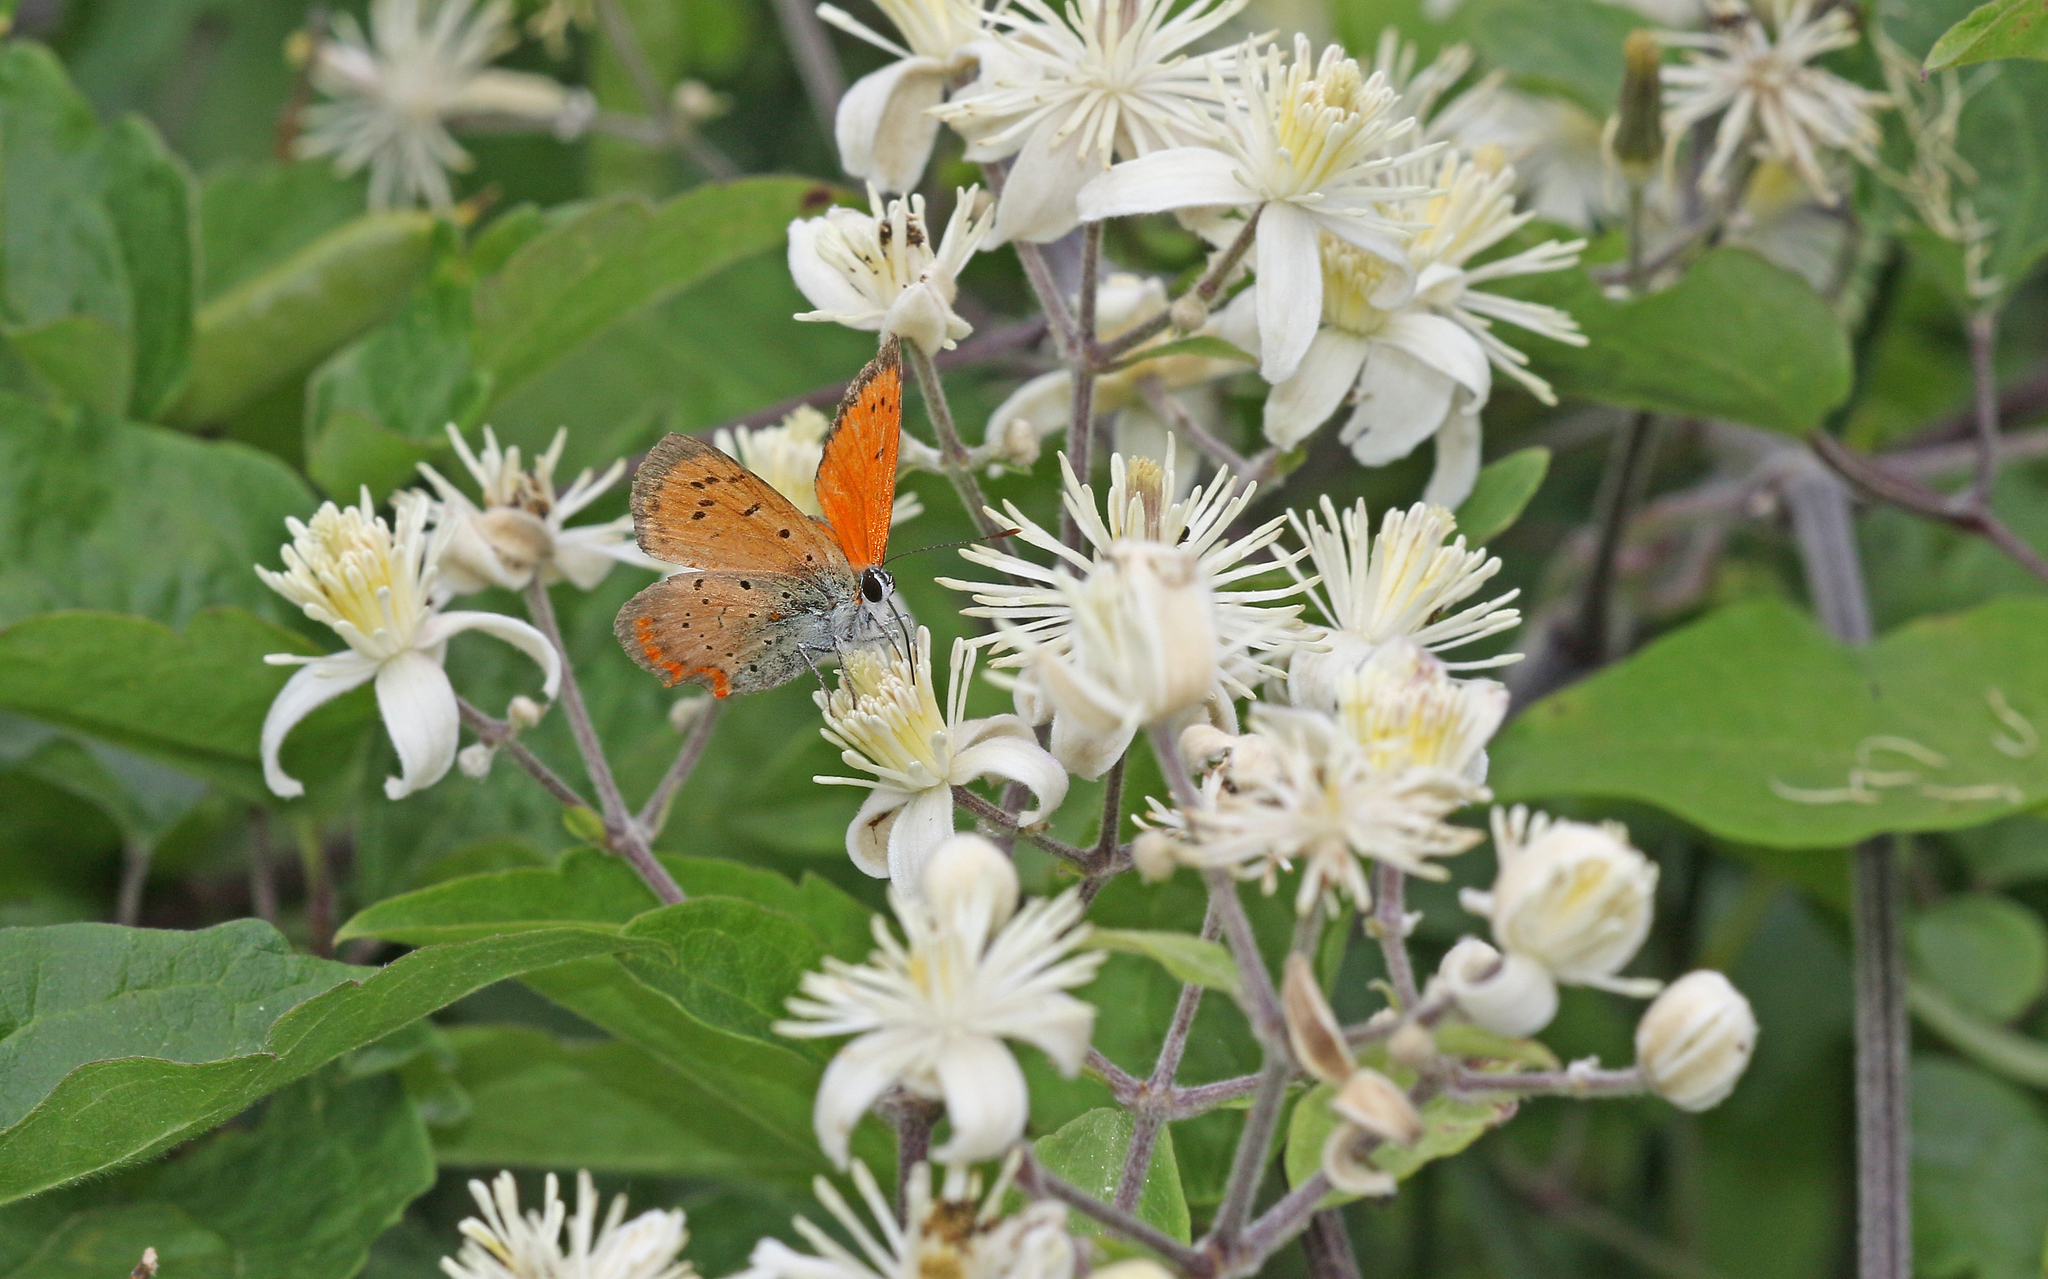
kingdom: Animalia
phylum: Arthropoda
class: Insecta
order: Lepidoptera
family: Lycaenidae
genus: Polyommatus
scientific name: Polyommatus ottomanus
